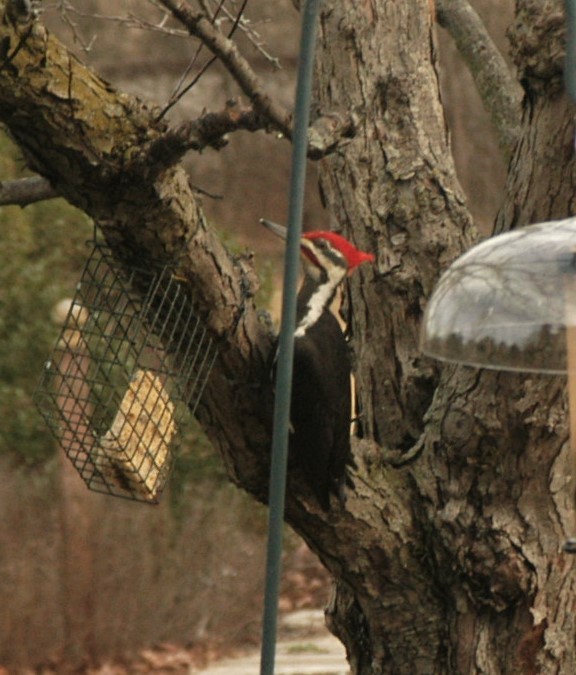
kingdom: Animalia
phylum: Chordata
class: Aves
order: Piciformes
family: Picidae
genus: Dryocopus
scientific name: Dryocopus pileatus
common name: Pileated woodpecker
